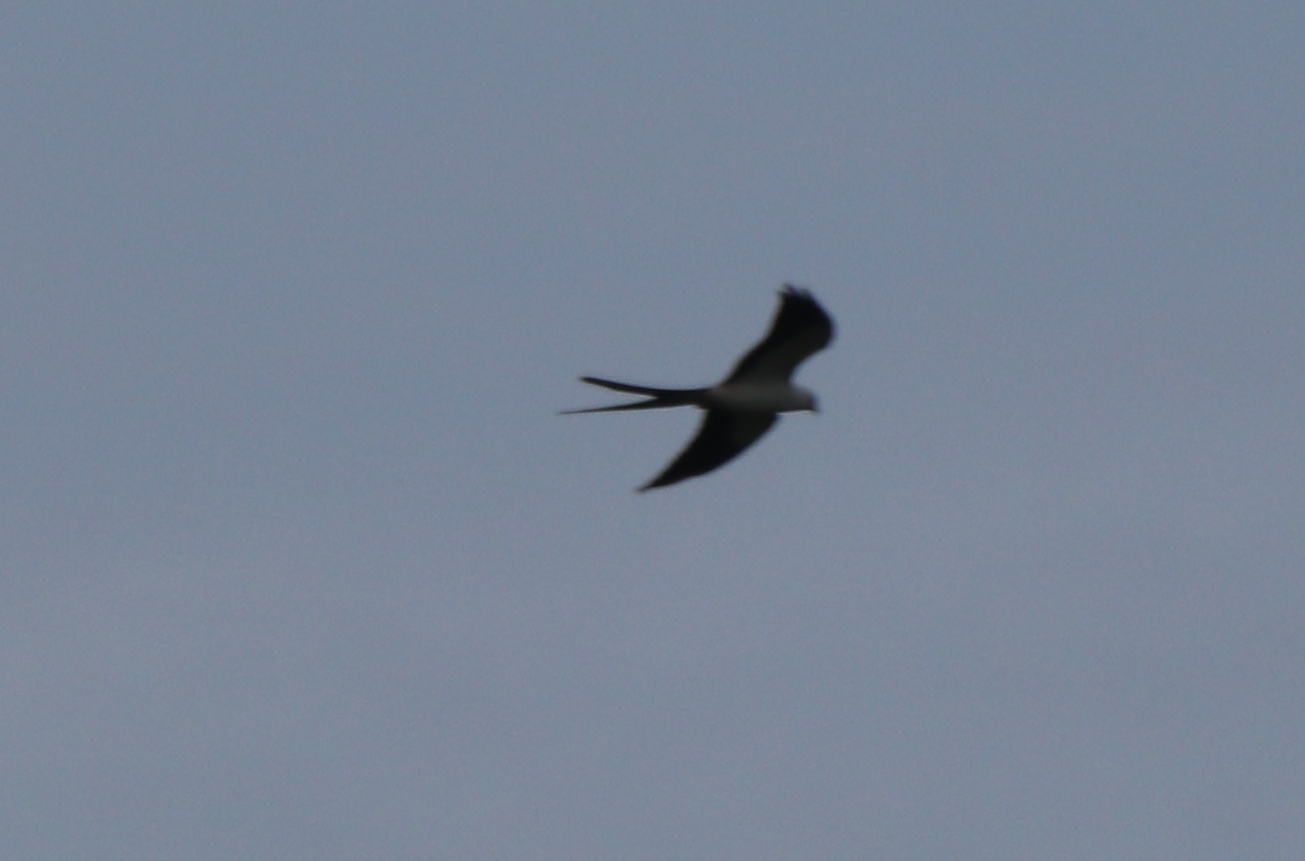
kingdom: Animalia
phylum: Chordata
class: Aves
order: Accipitriformes
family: Accipitridae
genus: Elanoides
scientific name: Elanoides forficatus
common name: Swallow-tailed kite
